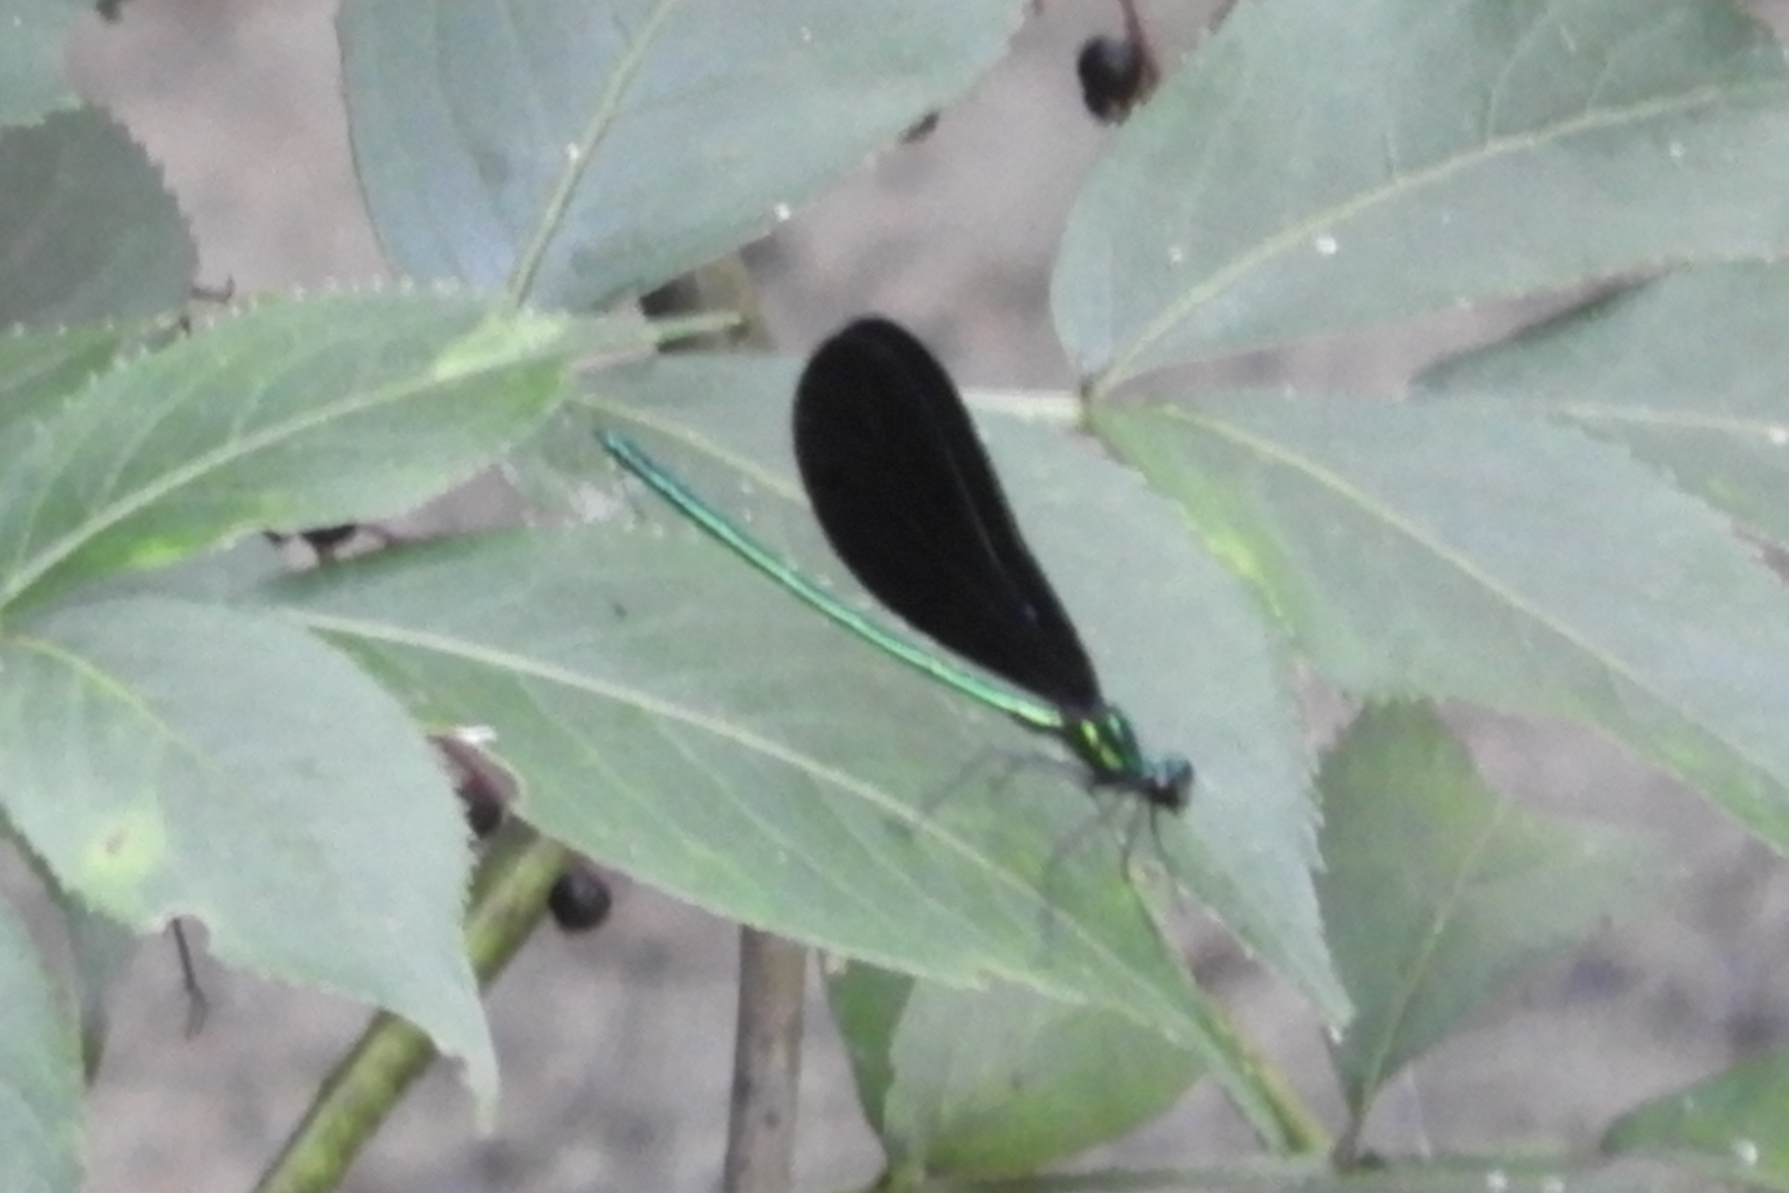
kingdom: Animalia
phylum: Arthropoda
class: Insecta
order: Odonata
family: Calopterygidae
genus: Calopteryx
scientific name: Calopteryx maculata
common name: Ebony jewelwing
